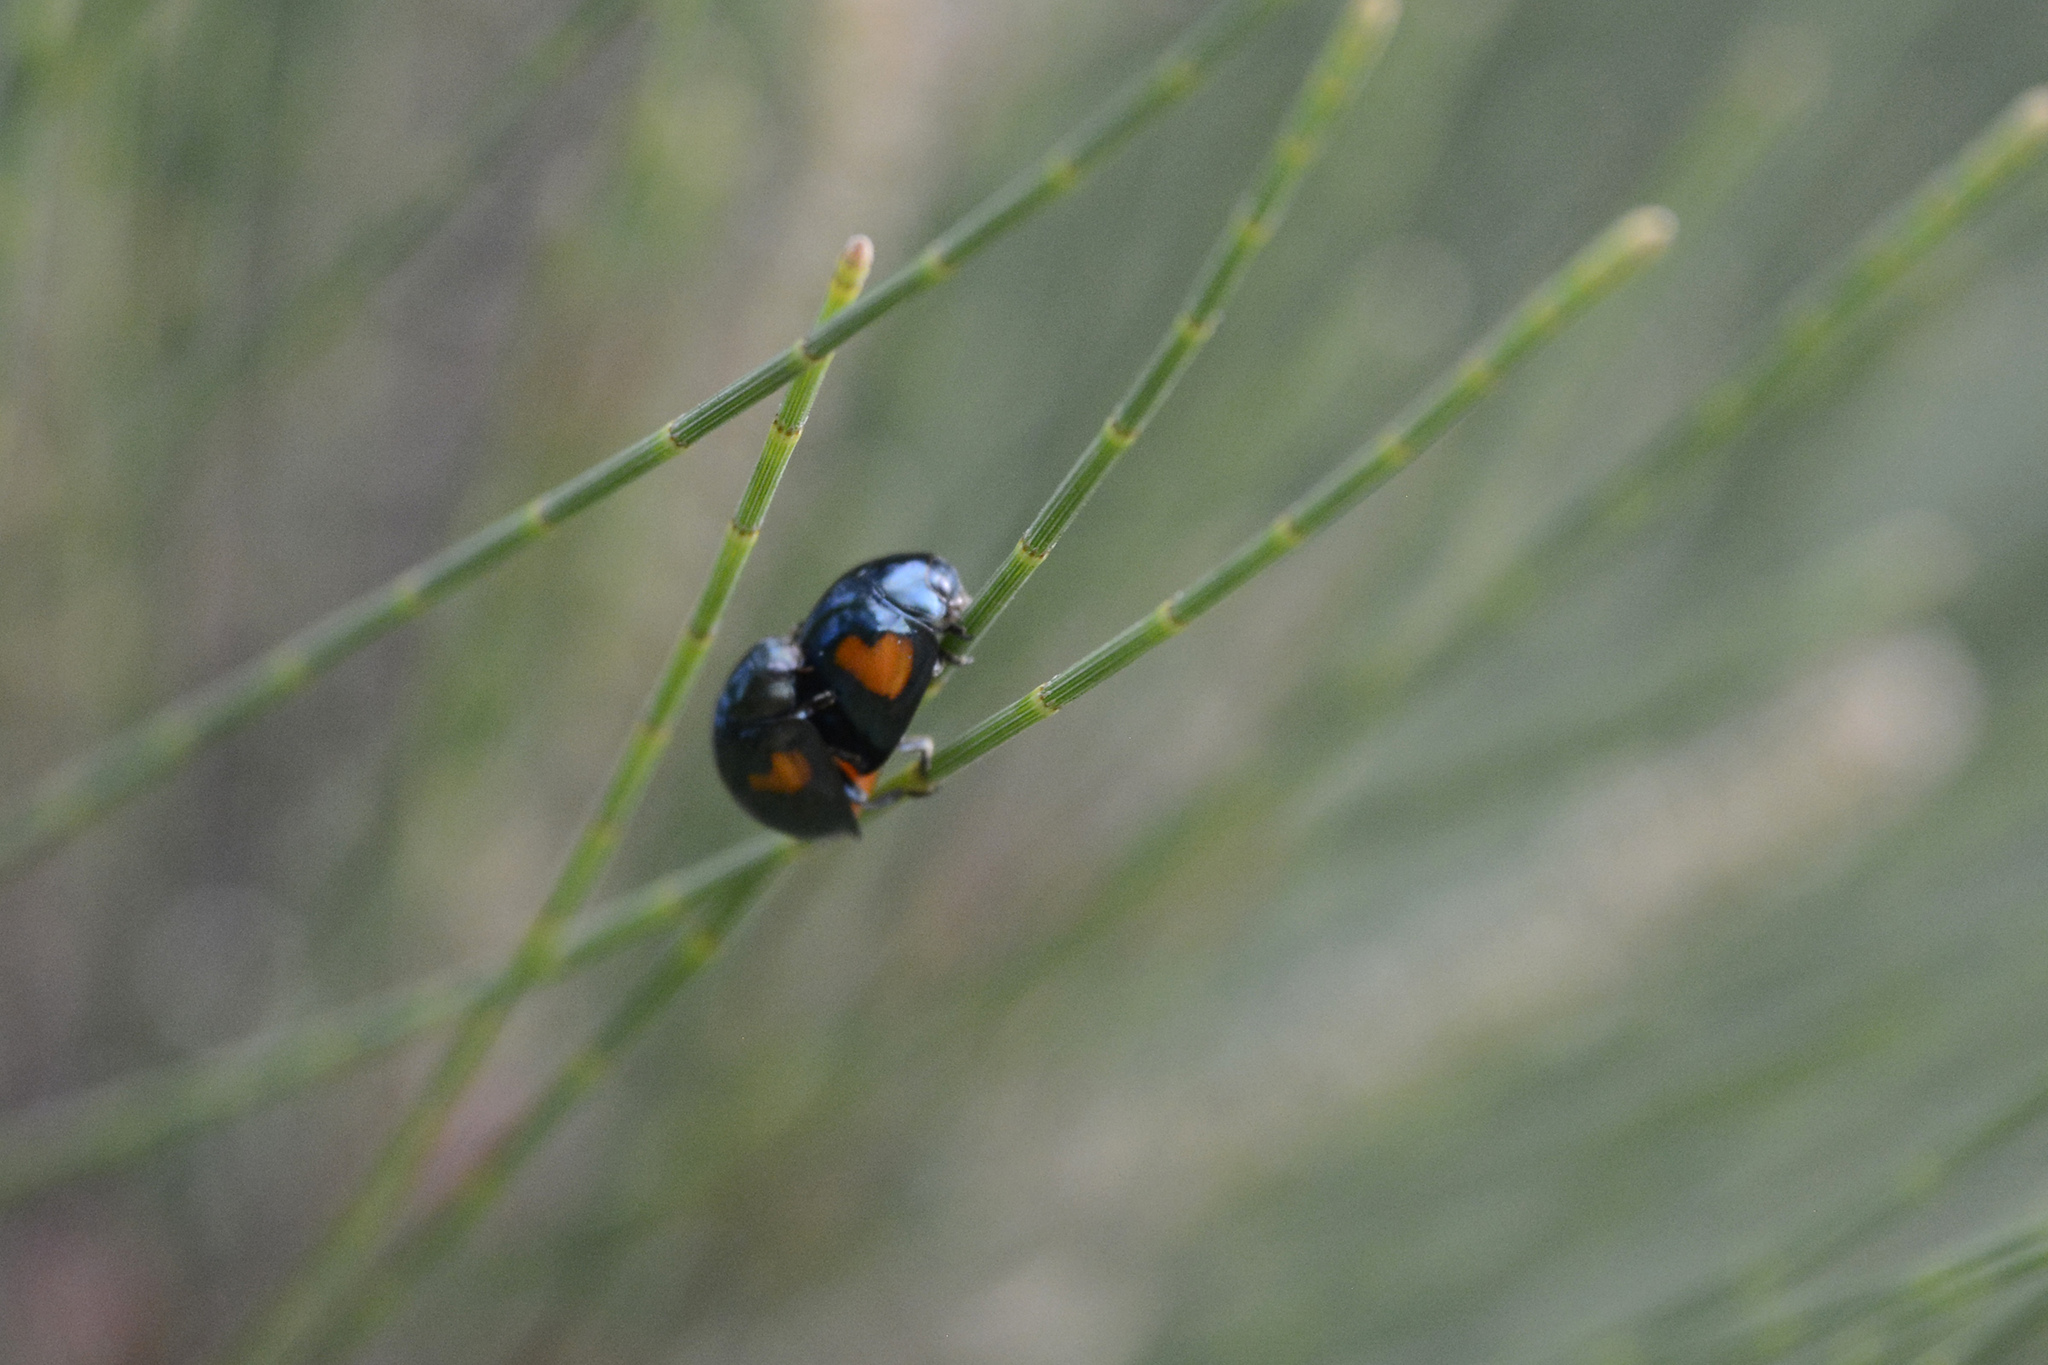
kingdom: Animalia
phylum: Arthropoda
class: Insecta
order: Coleoptera
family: Coccinellidae
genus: Orcus
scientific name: Orcus
